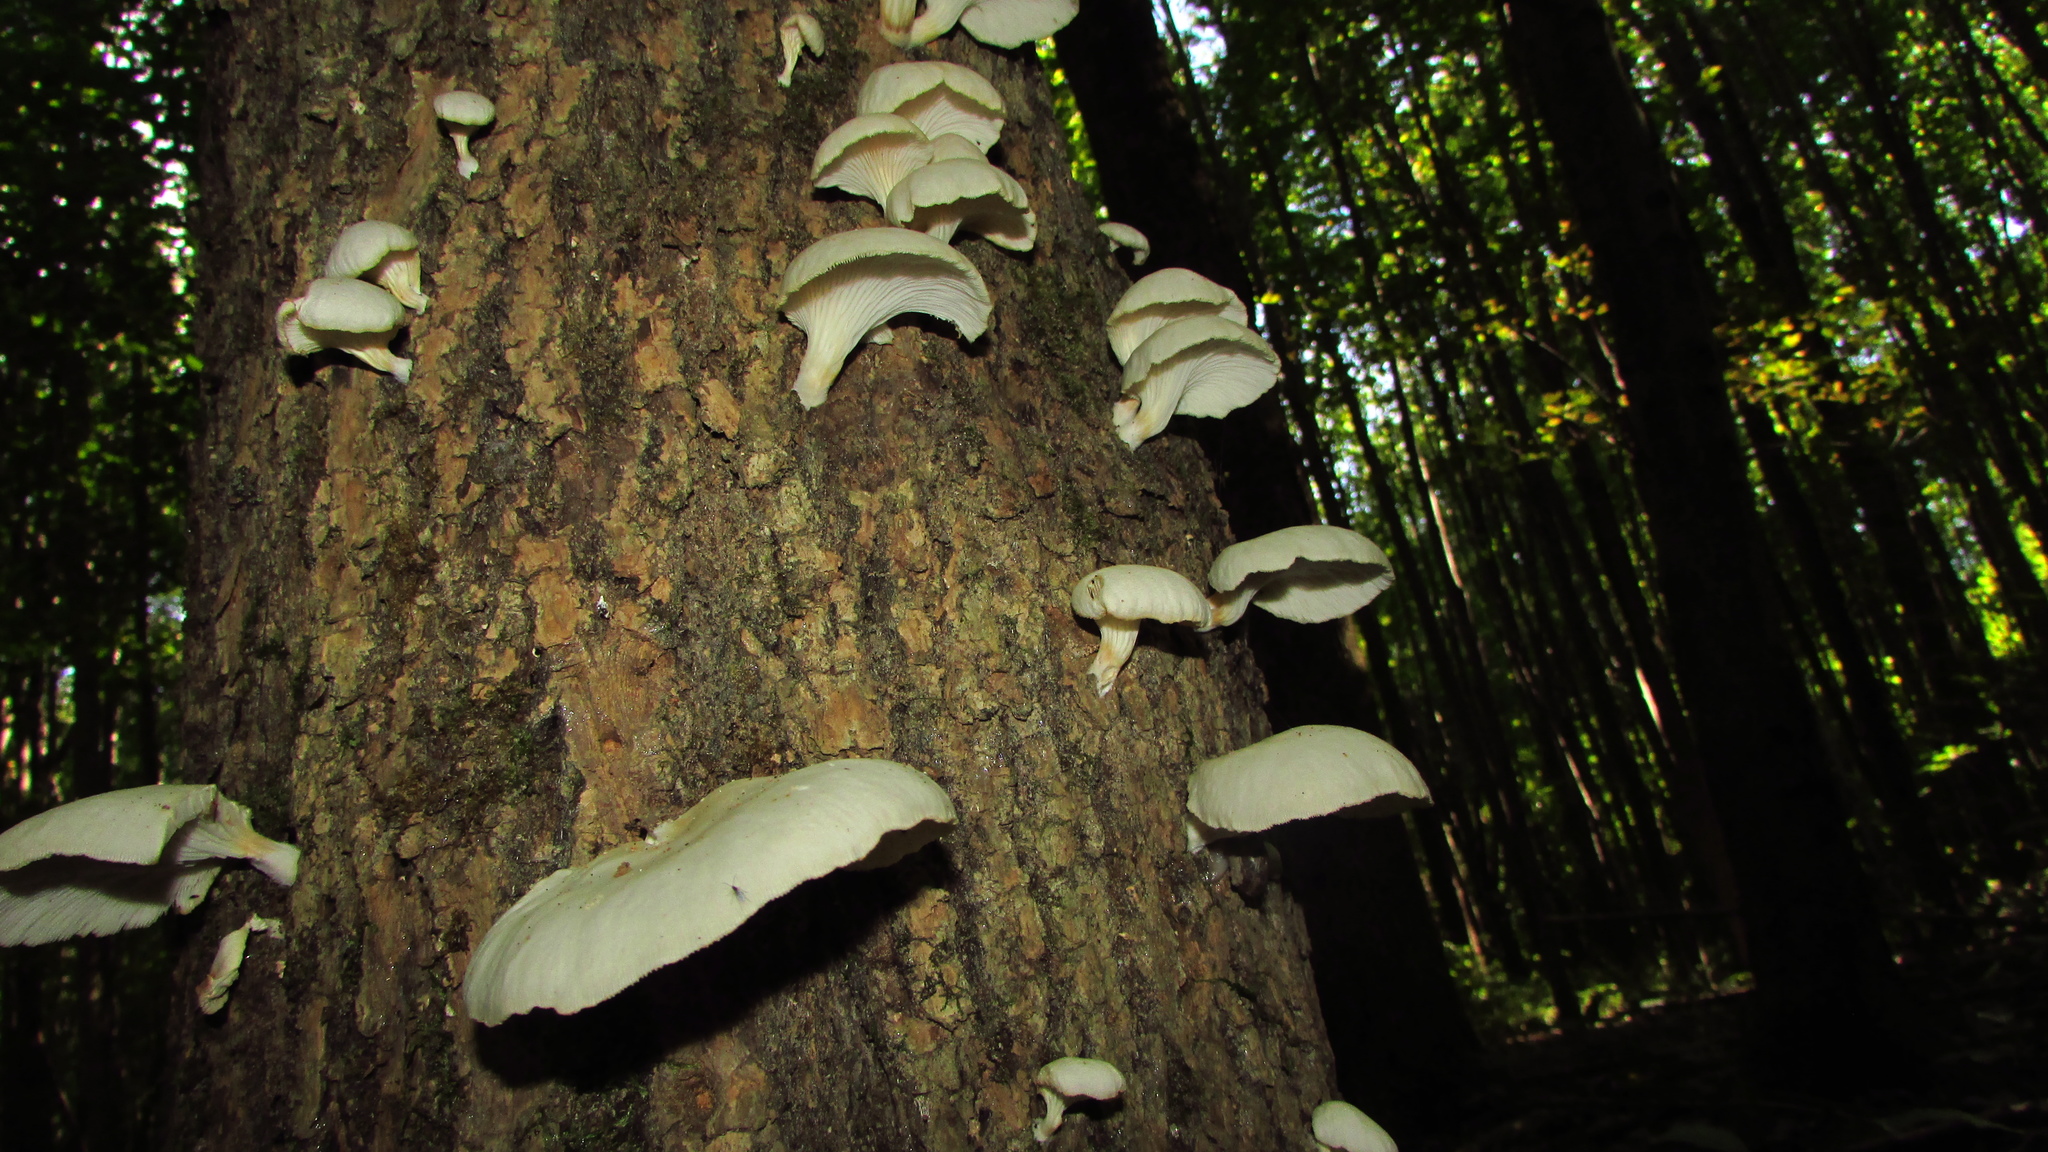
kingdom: Fungi
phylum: Basidiomycota
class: Agaricomycetes
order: Agaricales
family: Pleurotaceae
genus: Pleurotus
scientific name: Pleurotus pulmonarius
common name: Pale oyster
